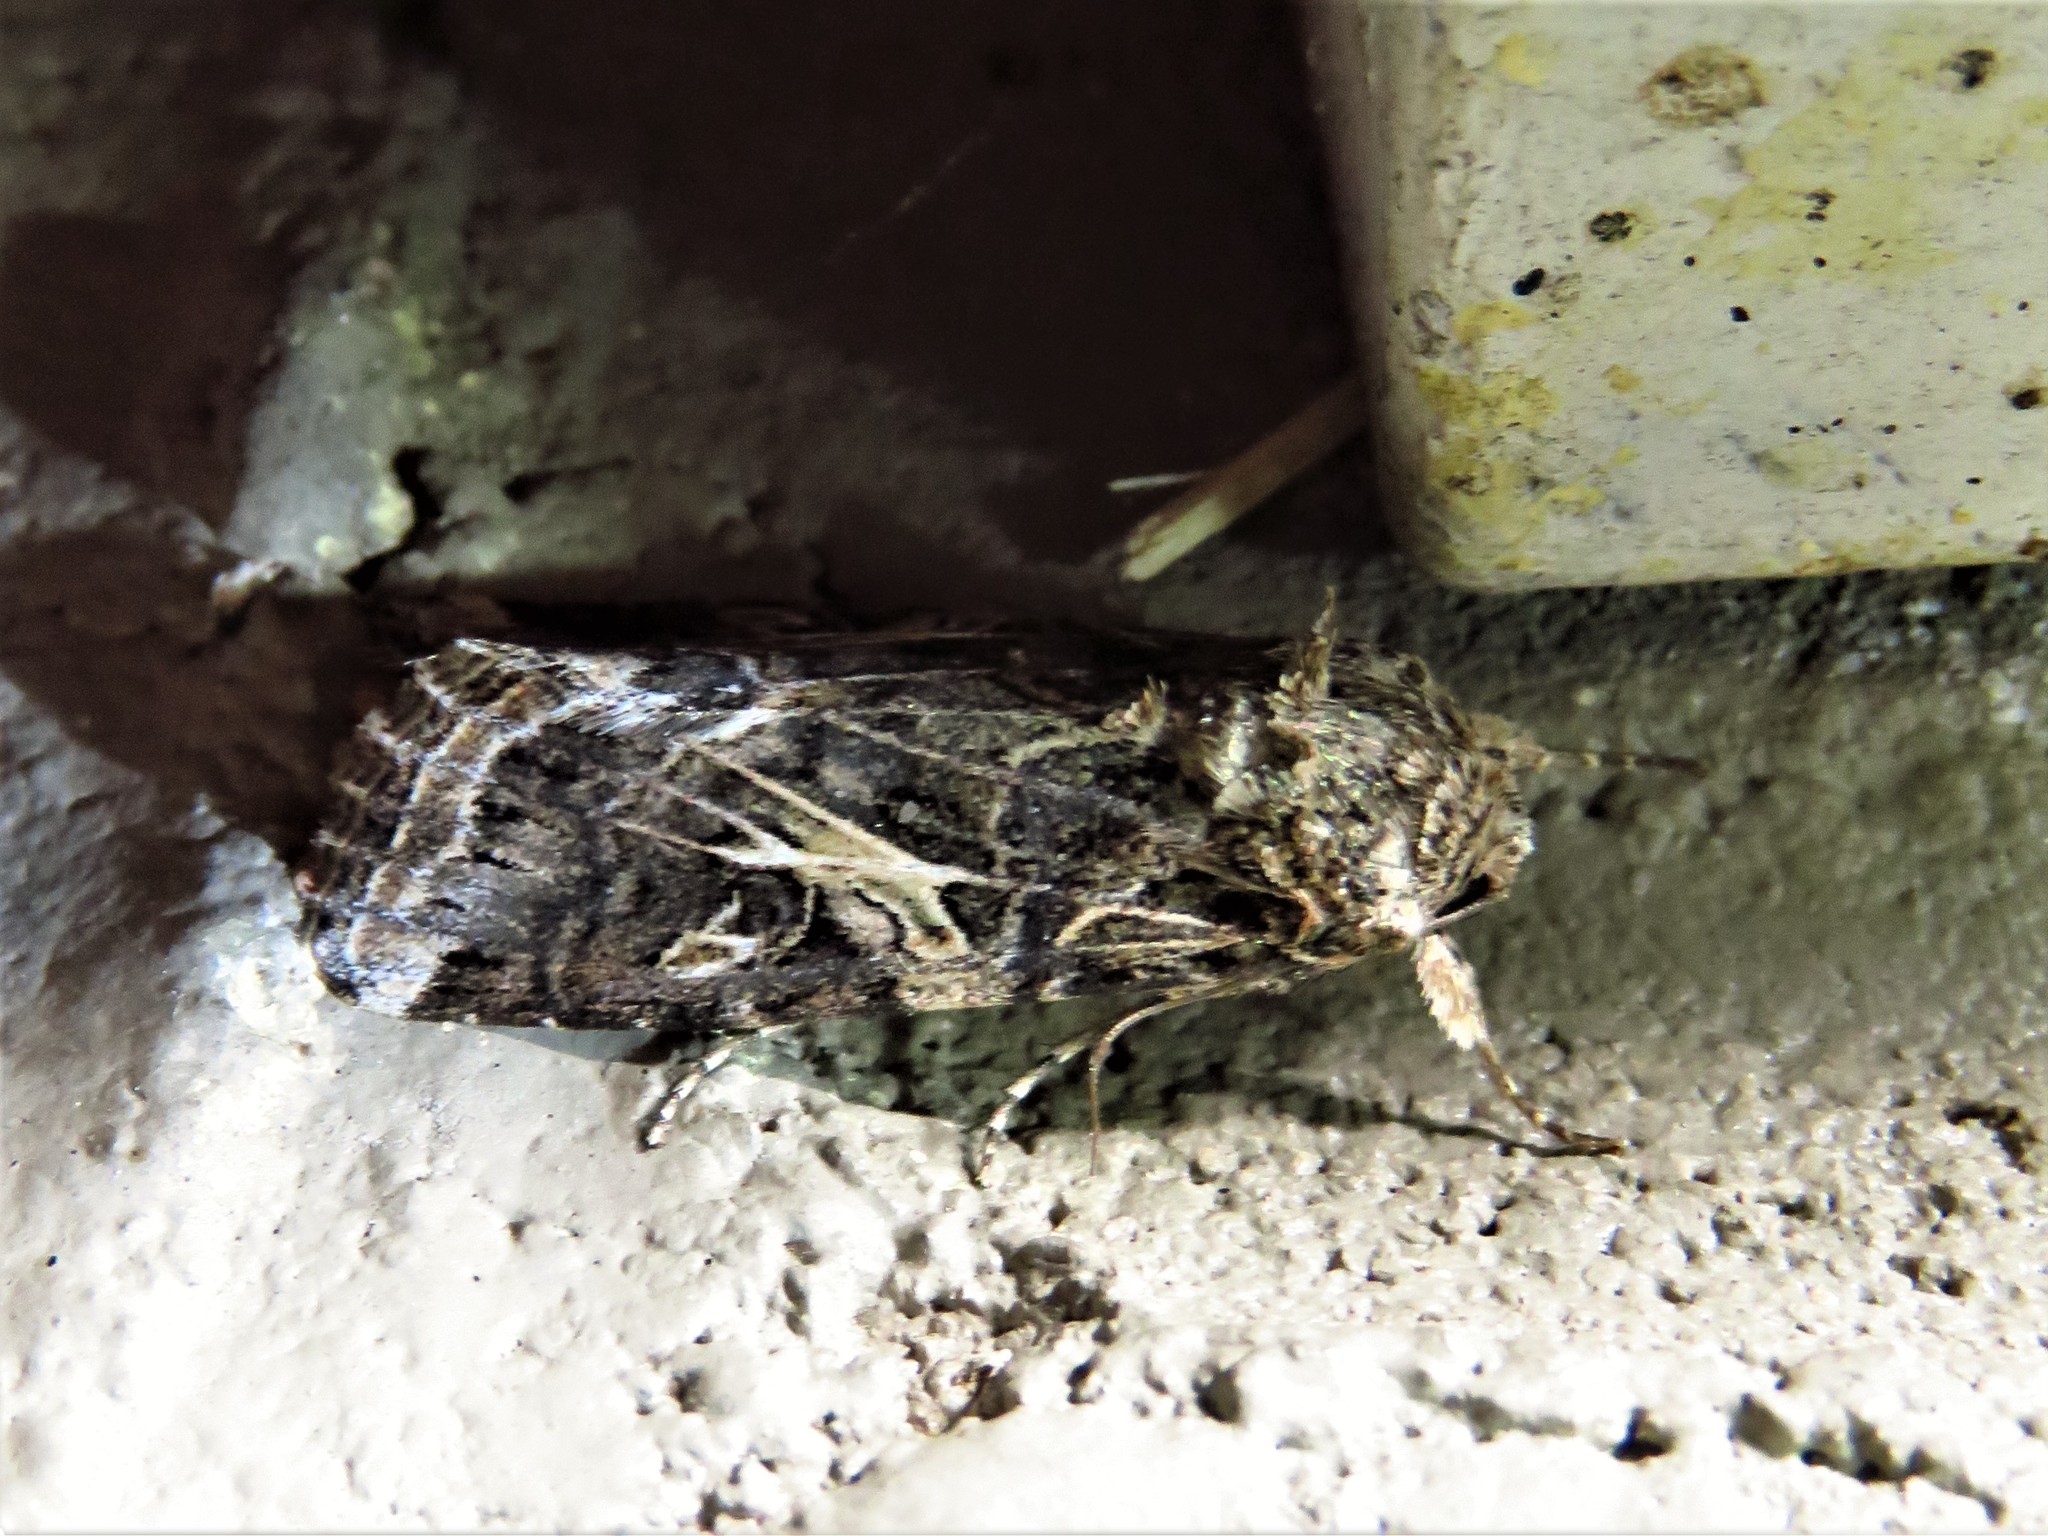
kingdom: Animalia
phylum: Arthropoda
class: Insecta
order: Lepidoptera
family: Noctuidae
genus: Spodoptera
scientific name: Spodoptera ornithogalli
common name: Yellow-striped armyworm
